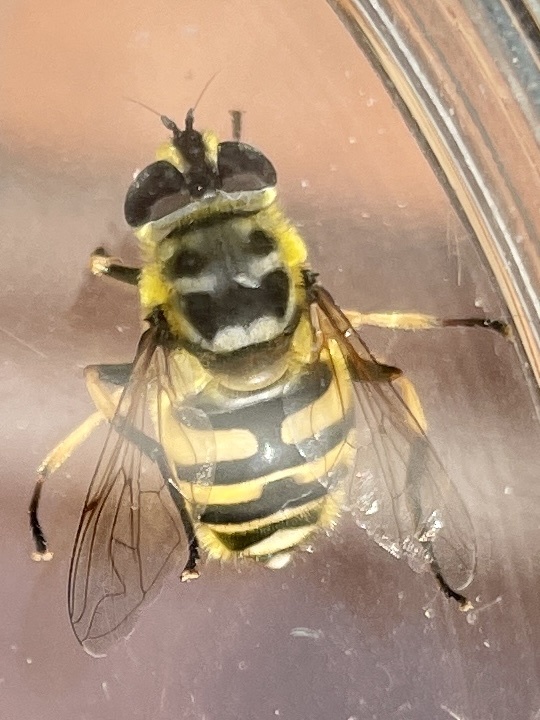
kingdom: Animalia
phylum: Arthropoda
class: Insecta
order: Diptera
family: Syrphidae
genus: Myathropa
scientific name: Myathropa florea
